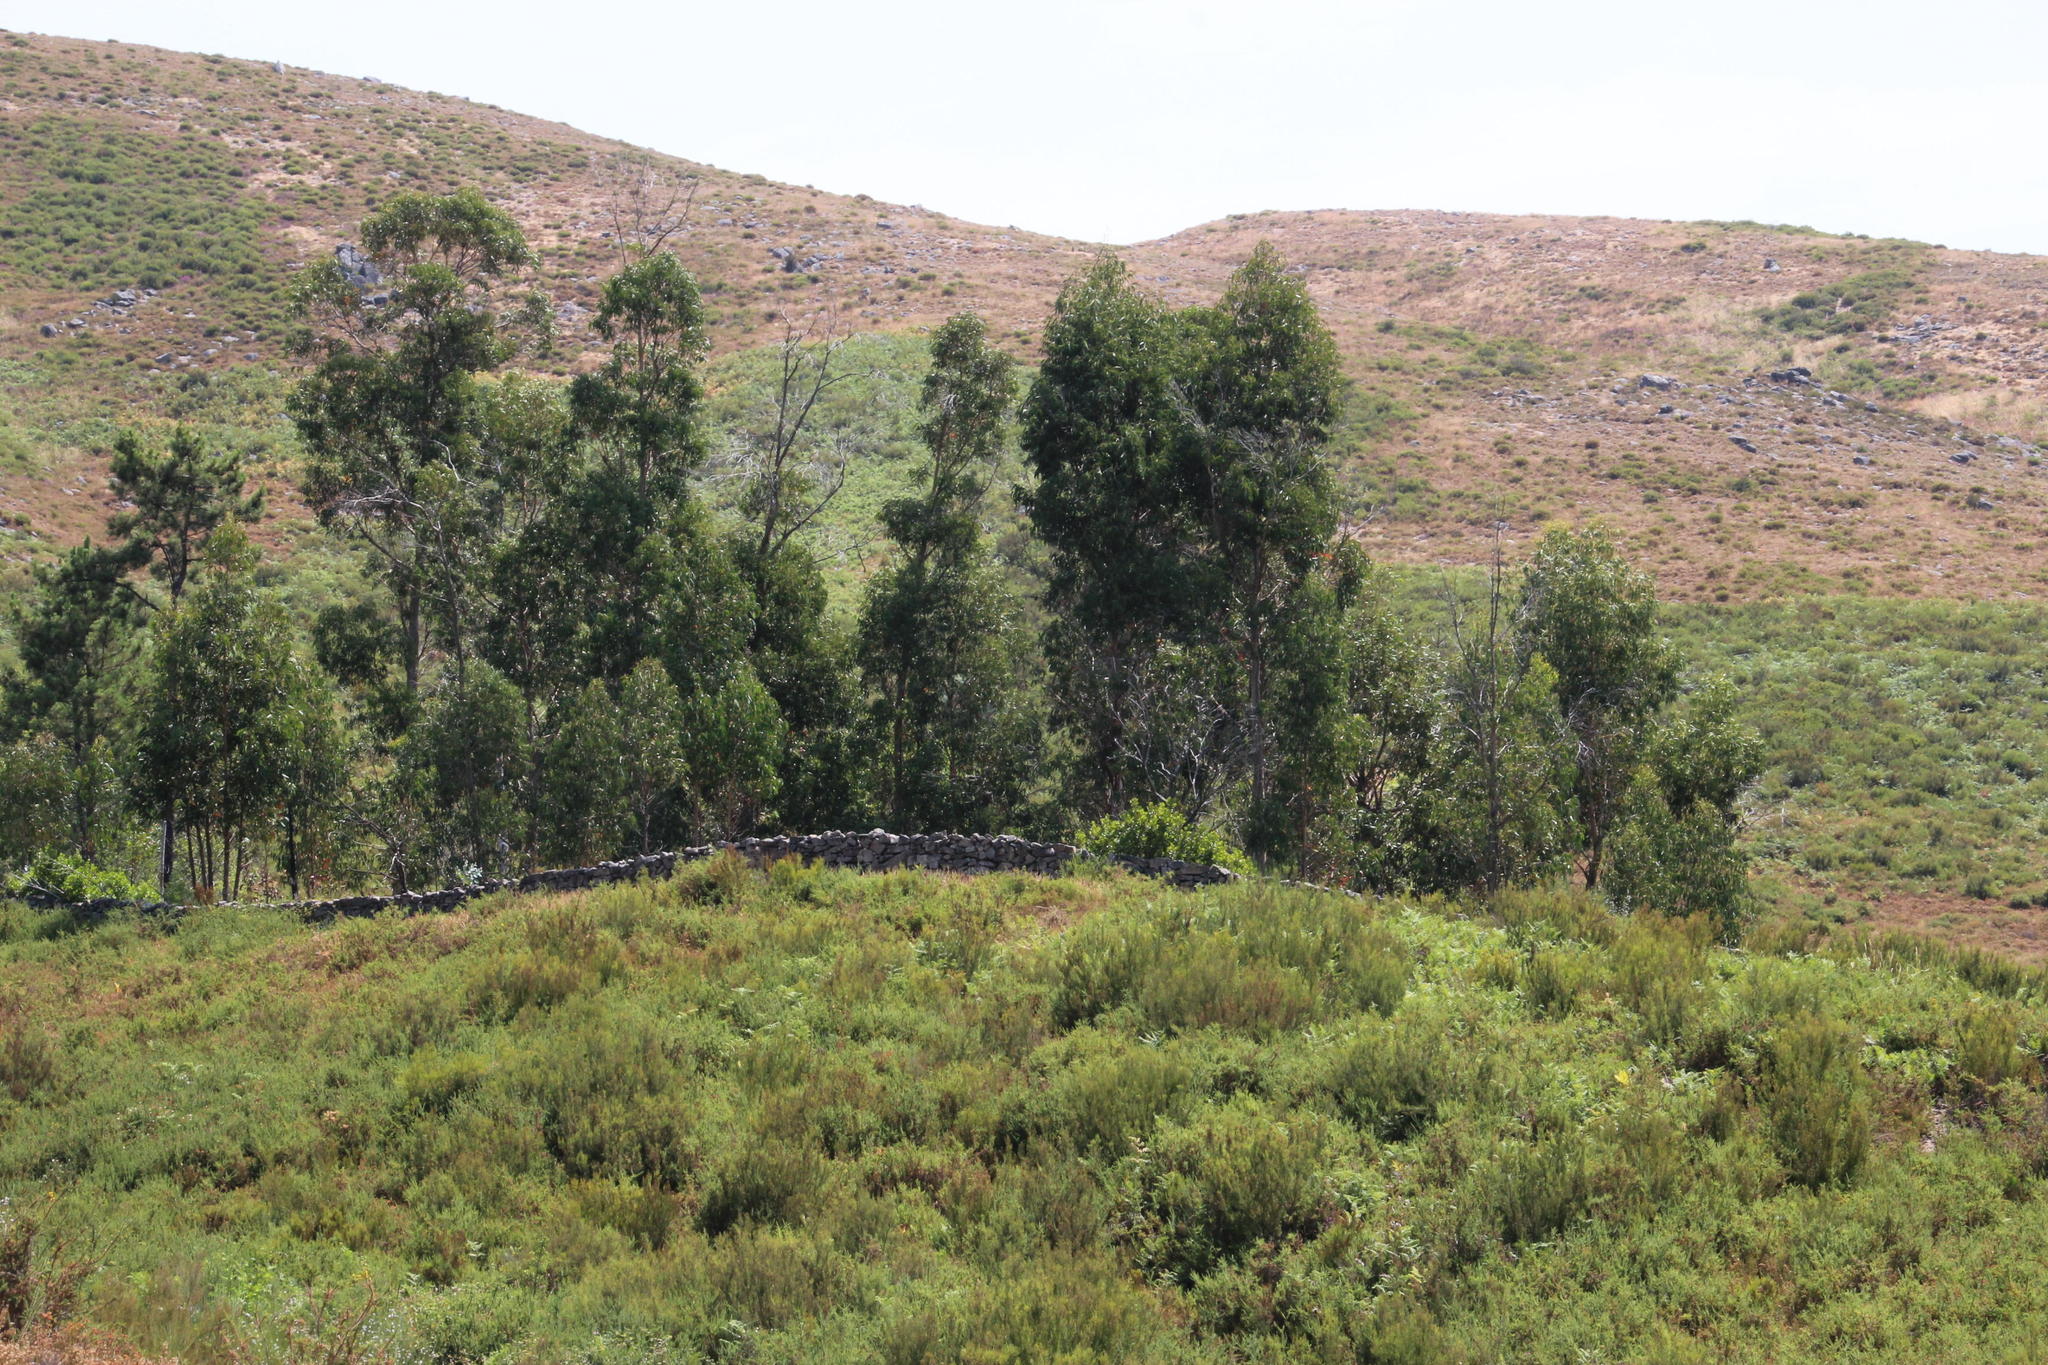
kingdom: Plantae
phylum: Tracheophyta
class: Magnoliopsida
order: Myrtales
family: Myrtaceae
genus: Eucalyptus
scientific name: Eucalyptus globulus
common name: Southern blue-gum
